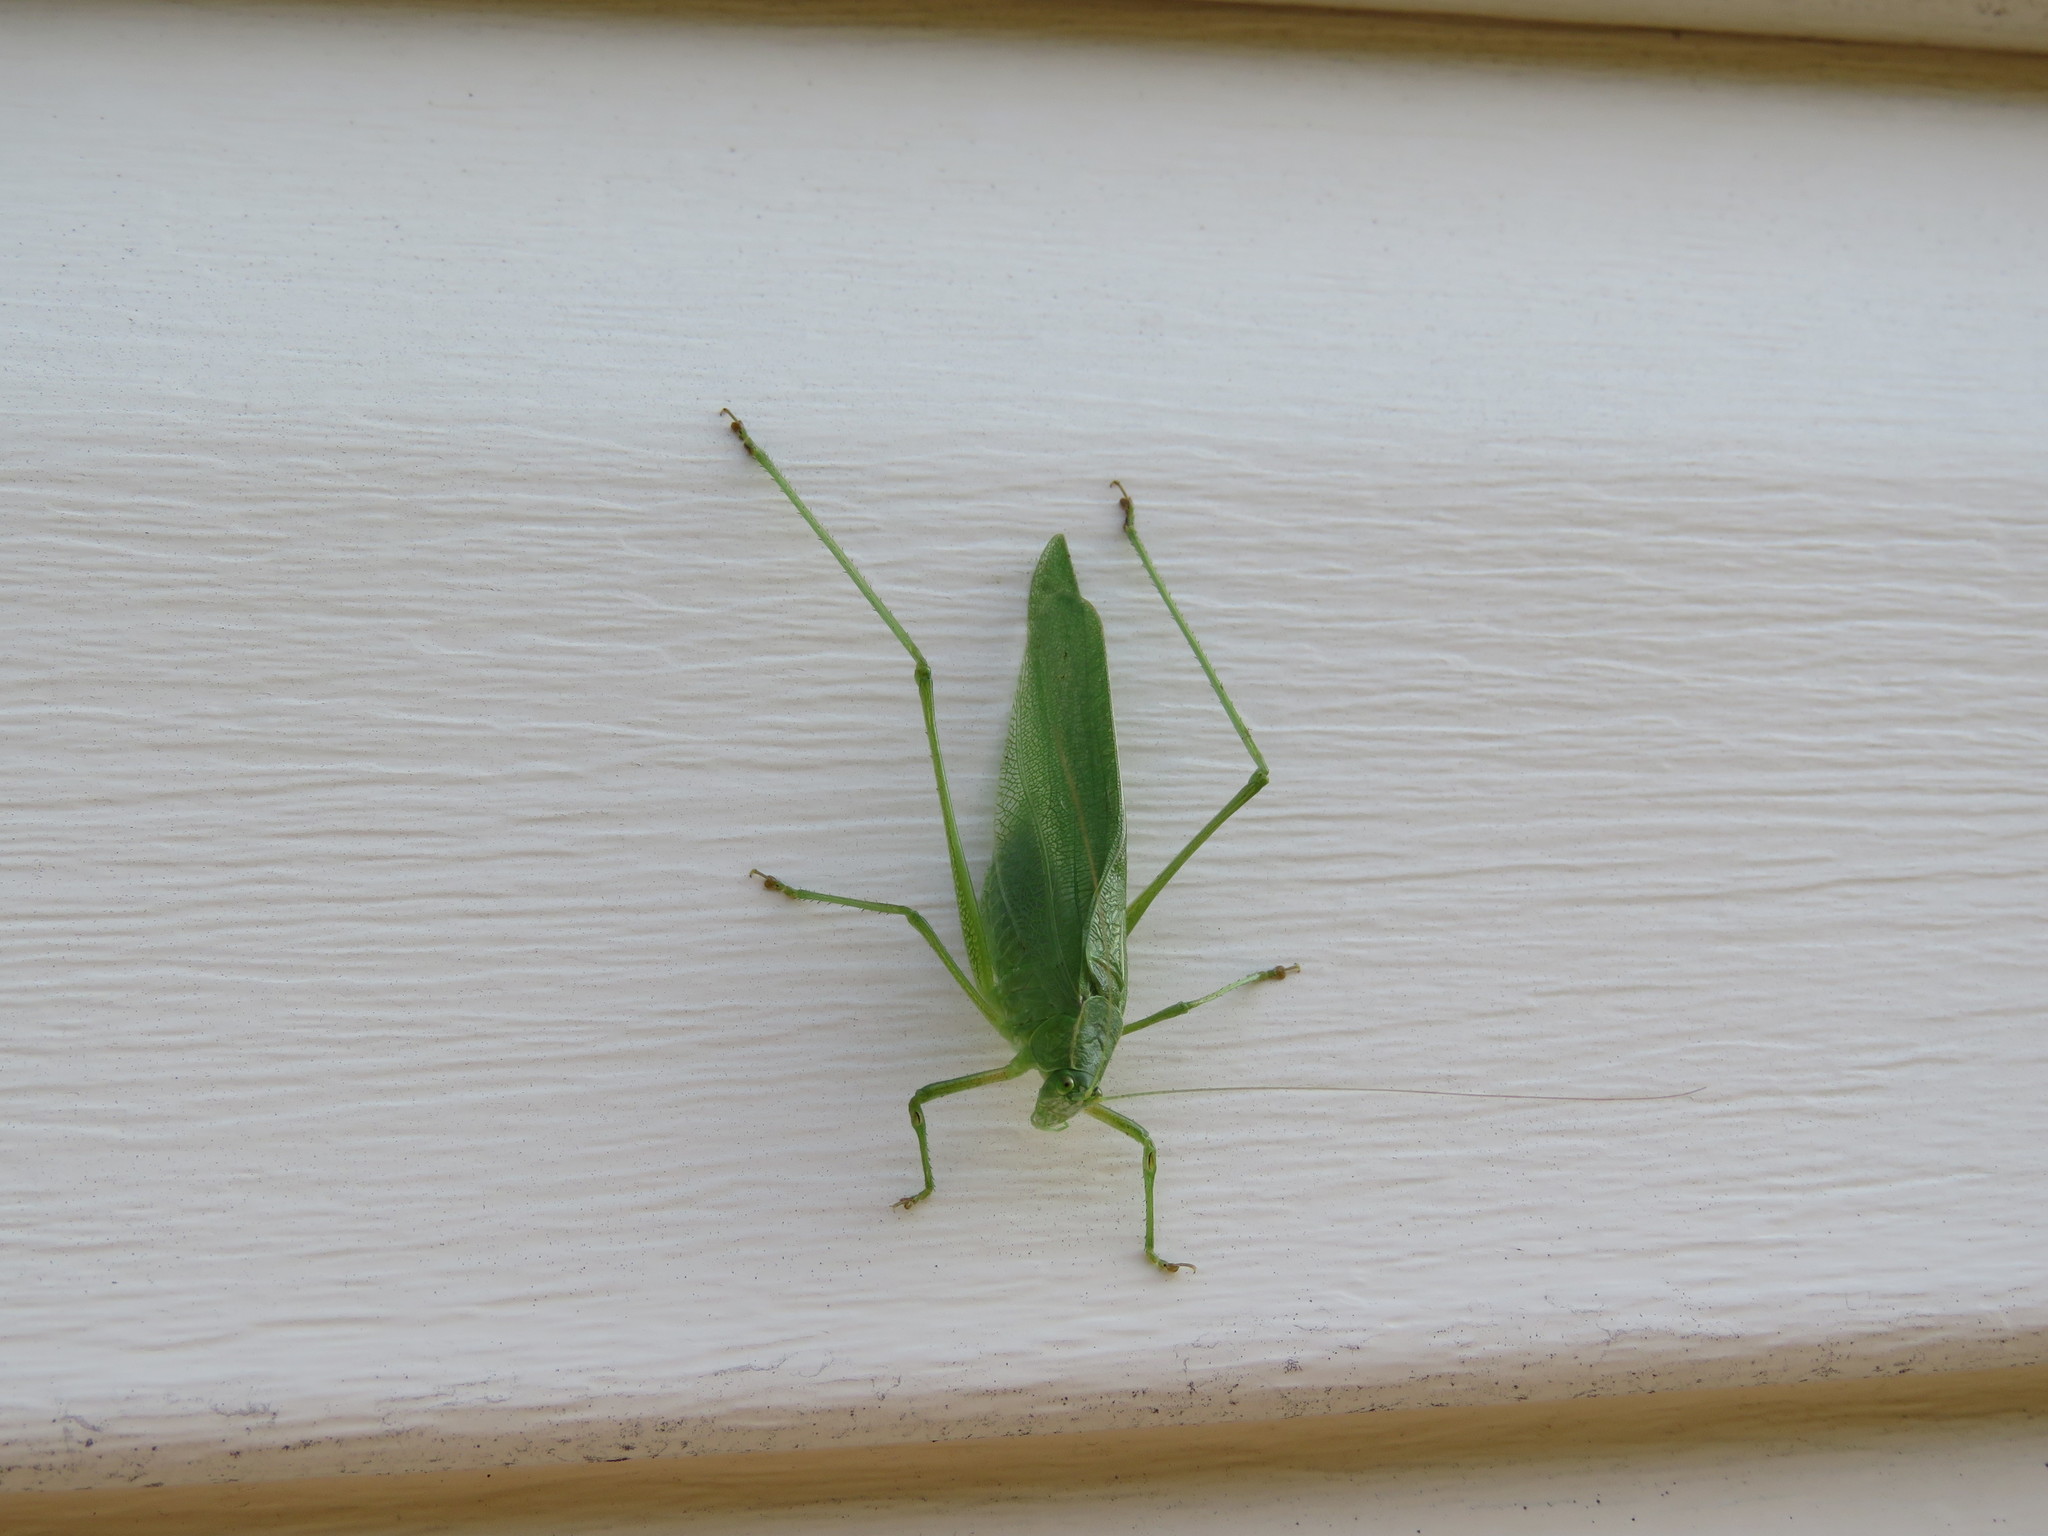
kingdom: Animalia
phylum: Arthropoda
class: Insecta
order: Orthoptera
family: Tettigoniidae
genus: Scudderia
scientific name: Scudderia pistillata
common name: Broad-winged bush-katydid
